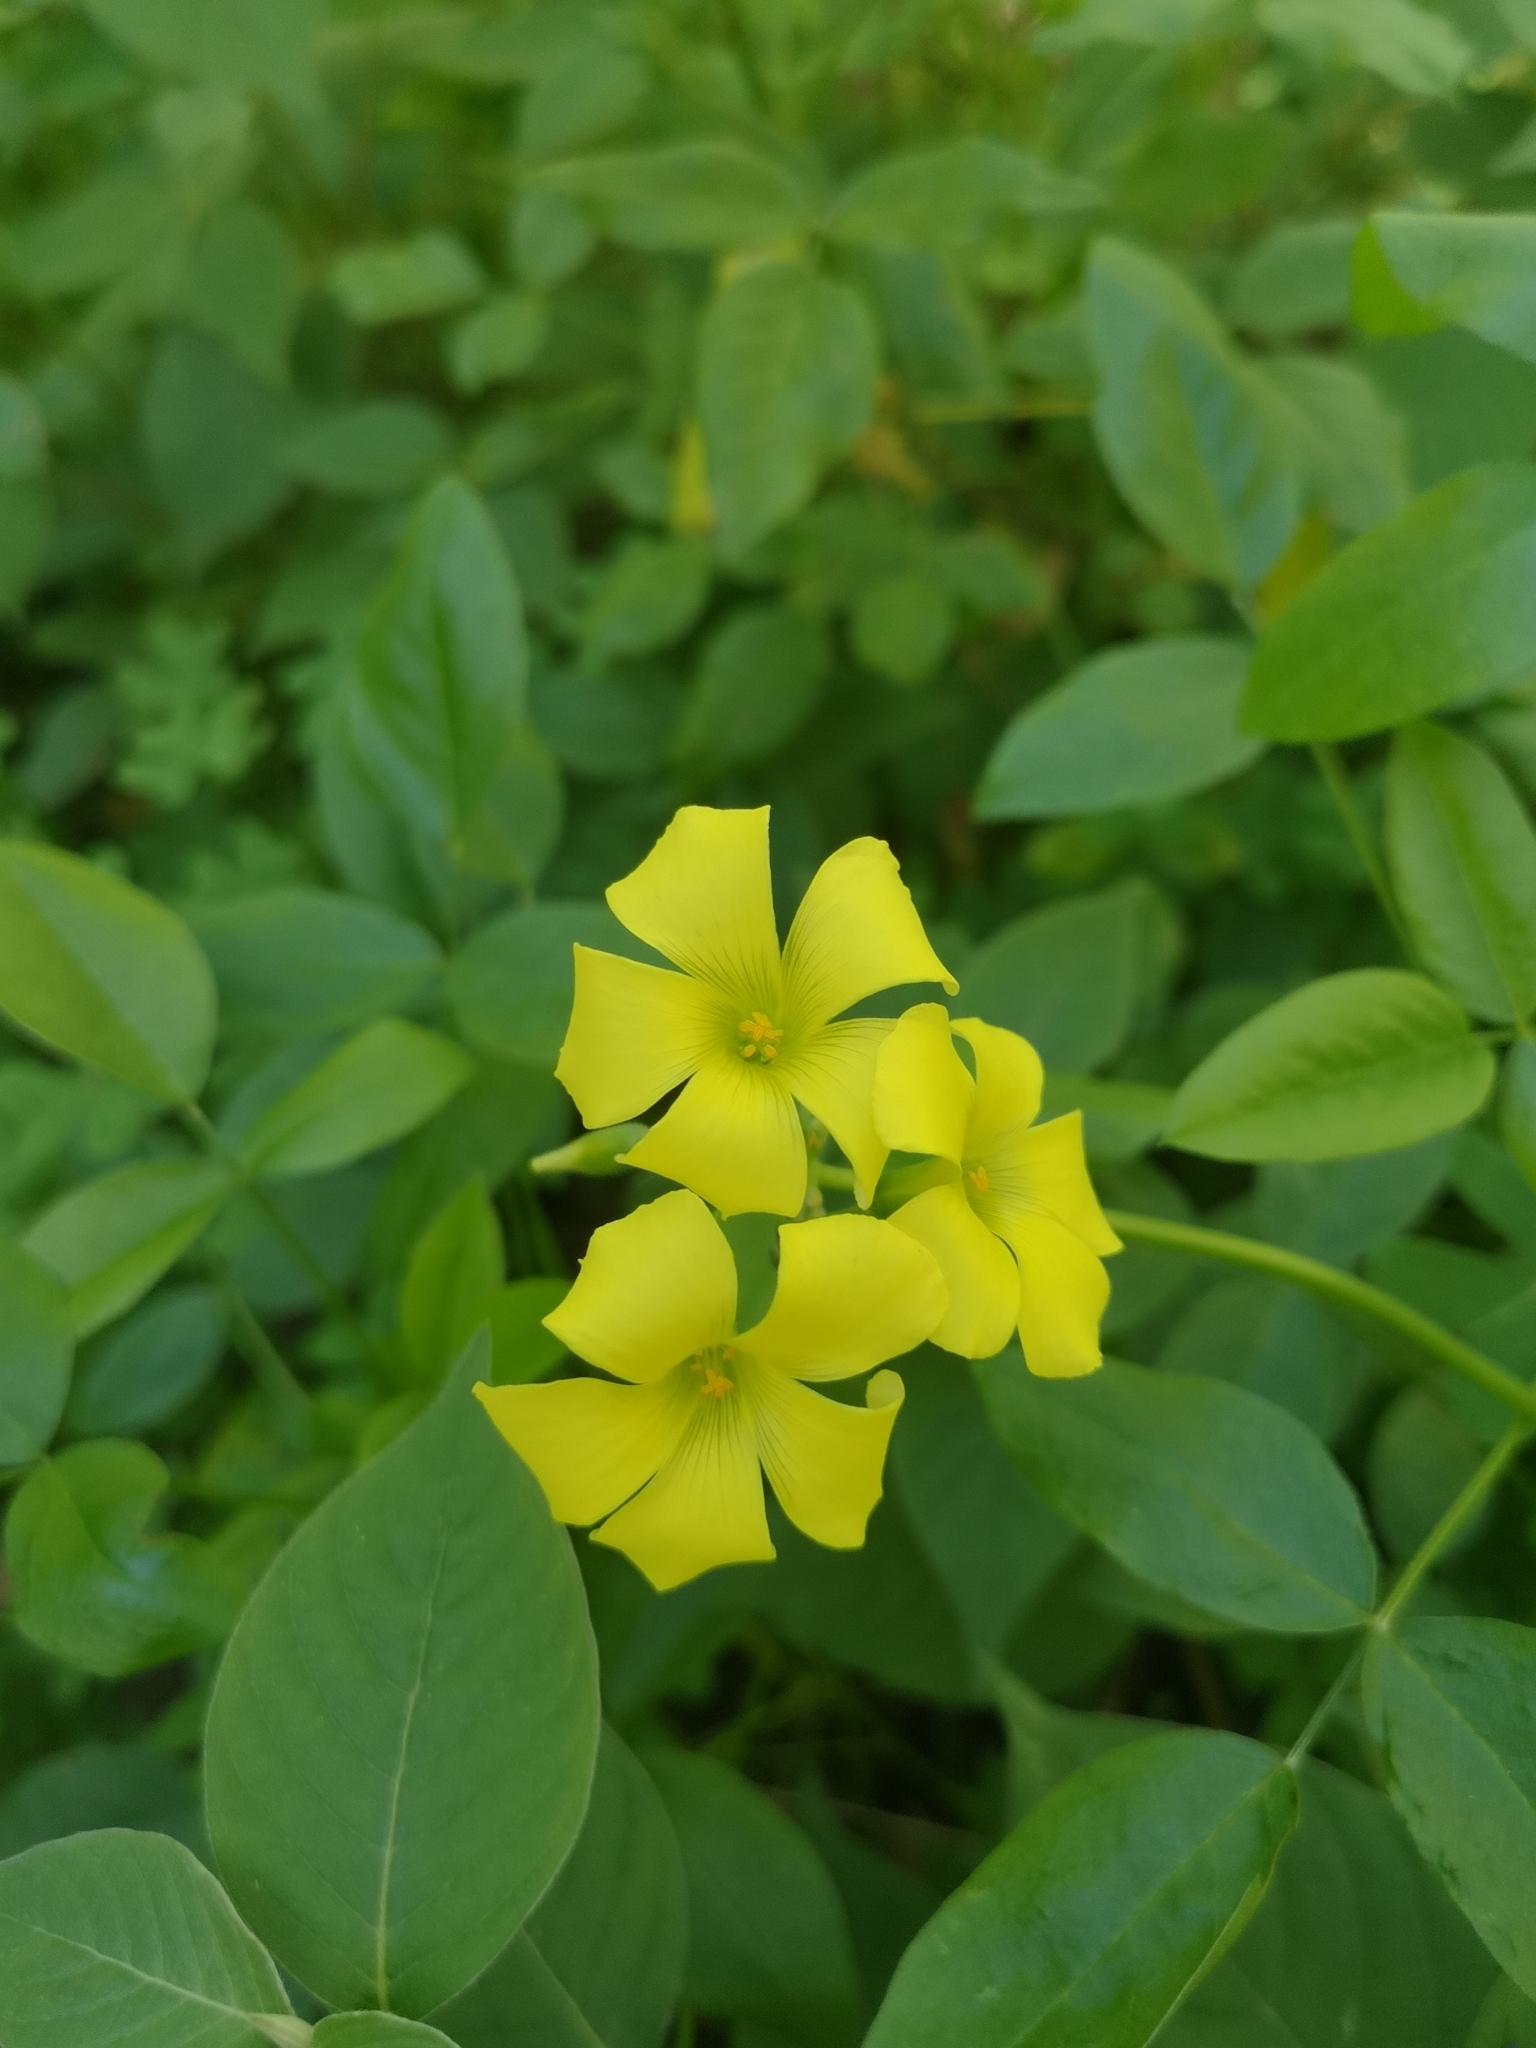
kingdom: Plantae
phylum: Tracheophyta
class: Magnoliopsida
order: Oxalidales
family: Oxalidaceae
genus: Oxalis
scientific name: Oxalis pes-caprae
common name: Bermuda-buttercup
